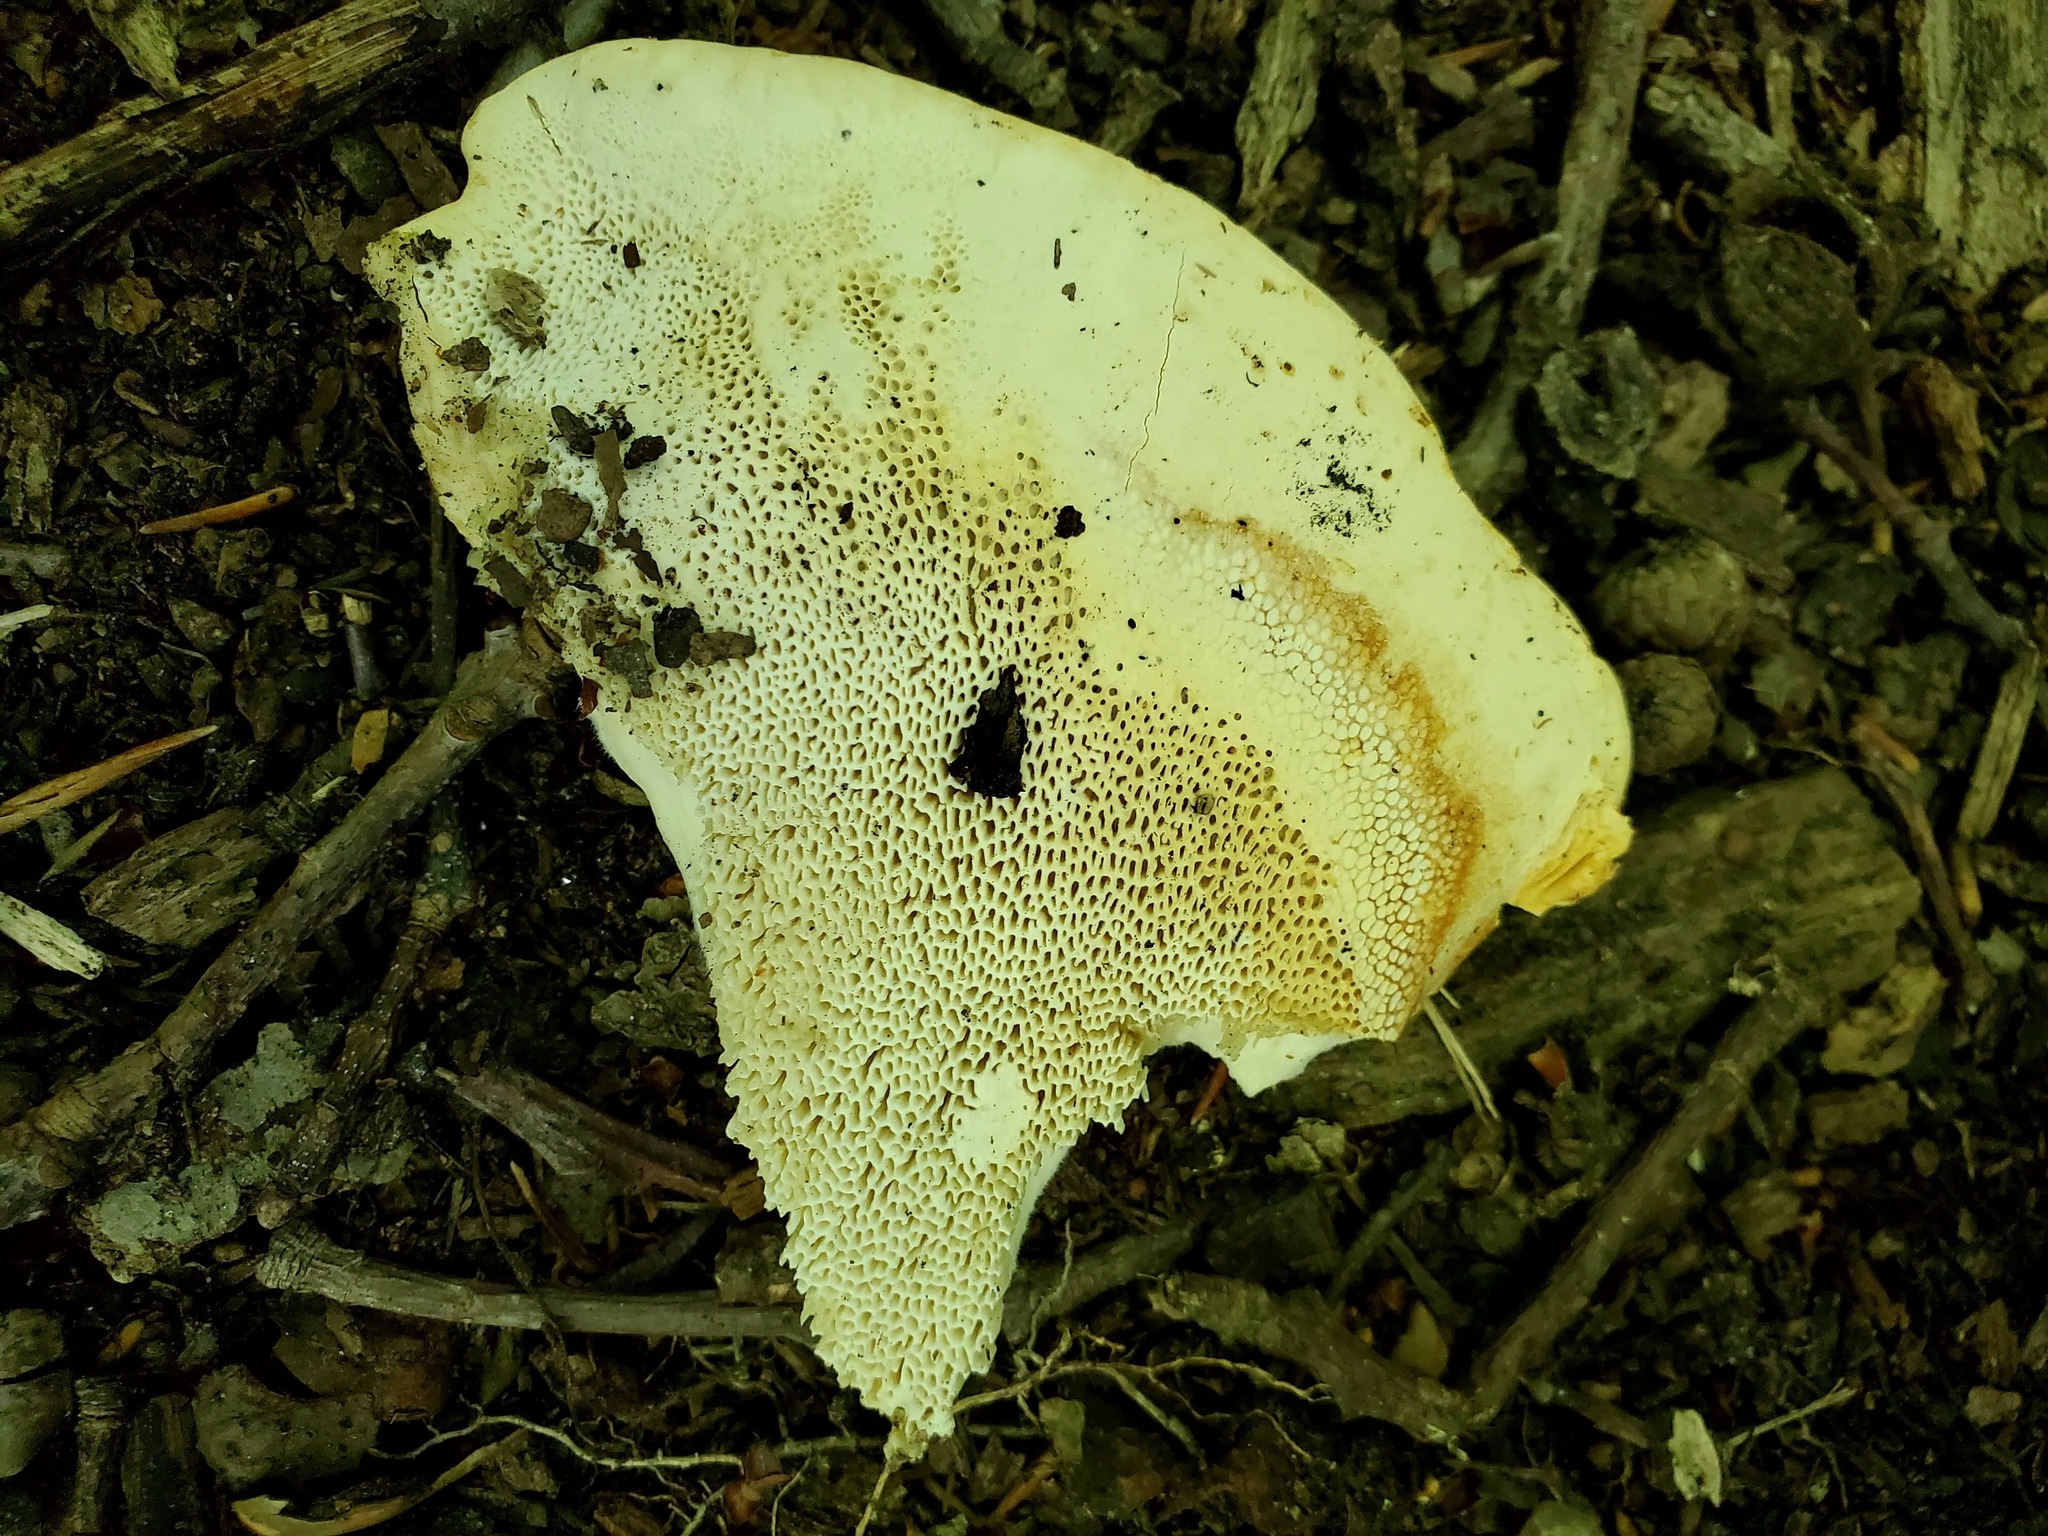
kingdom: Fungi
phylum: Basidiomycota
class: Agaricomycetes
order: Russulales
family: Bondarzewiaceae
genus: Bondarzewia
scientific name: Bondarzewia berkeleyi
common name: Berkeley's polypore
